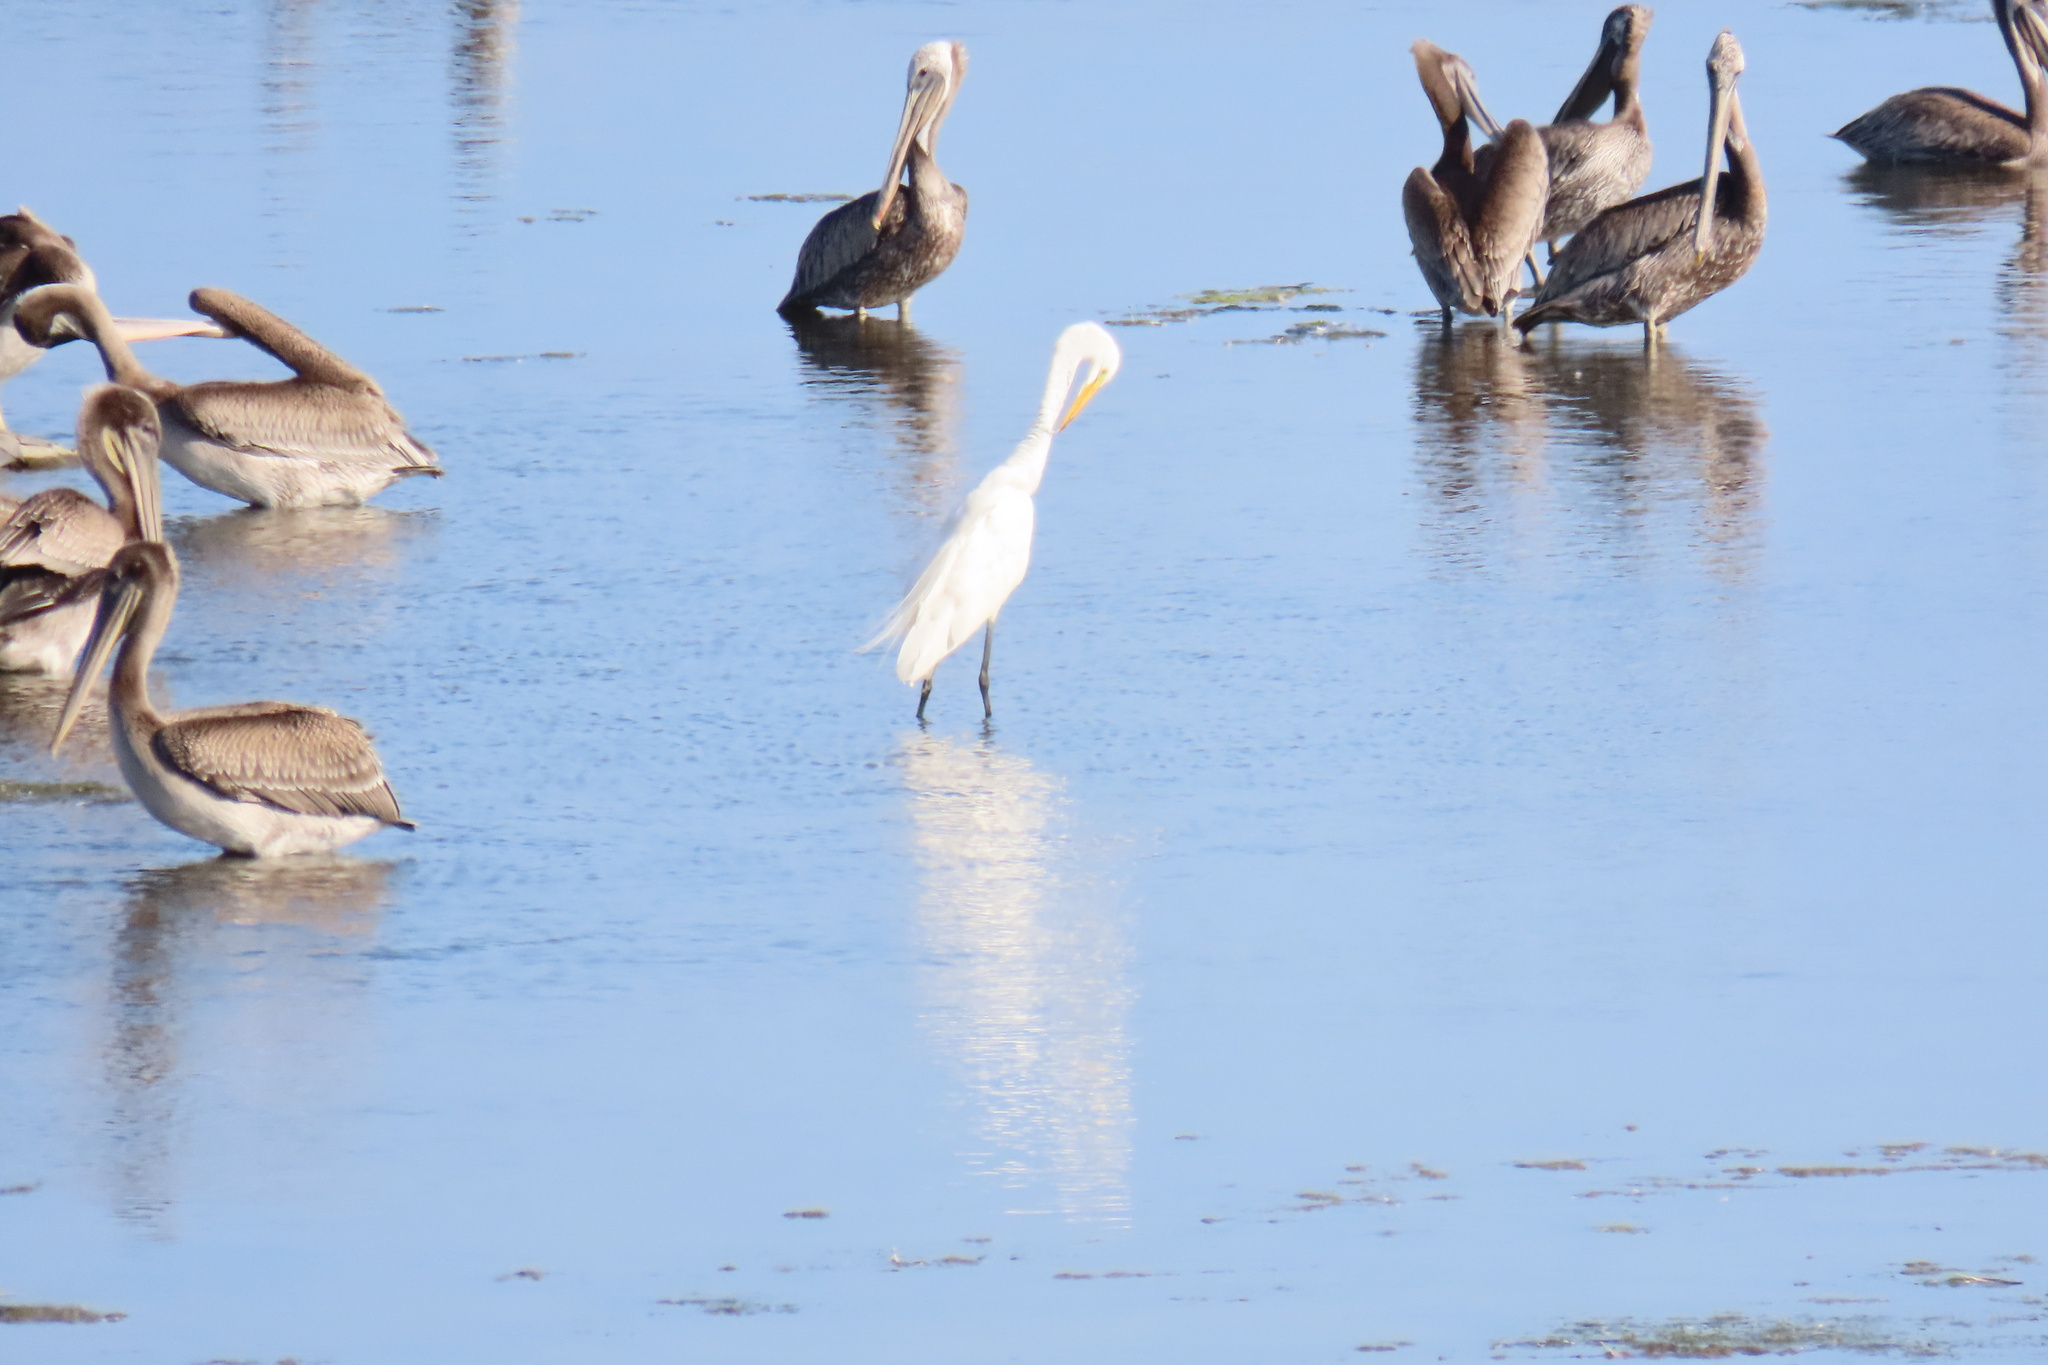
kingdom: Animalia
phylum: Chordata
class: Aves
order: Pelecaniformes
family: Ardeidae
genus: Ardea
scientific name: Ardea alba
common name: Great egret
